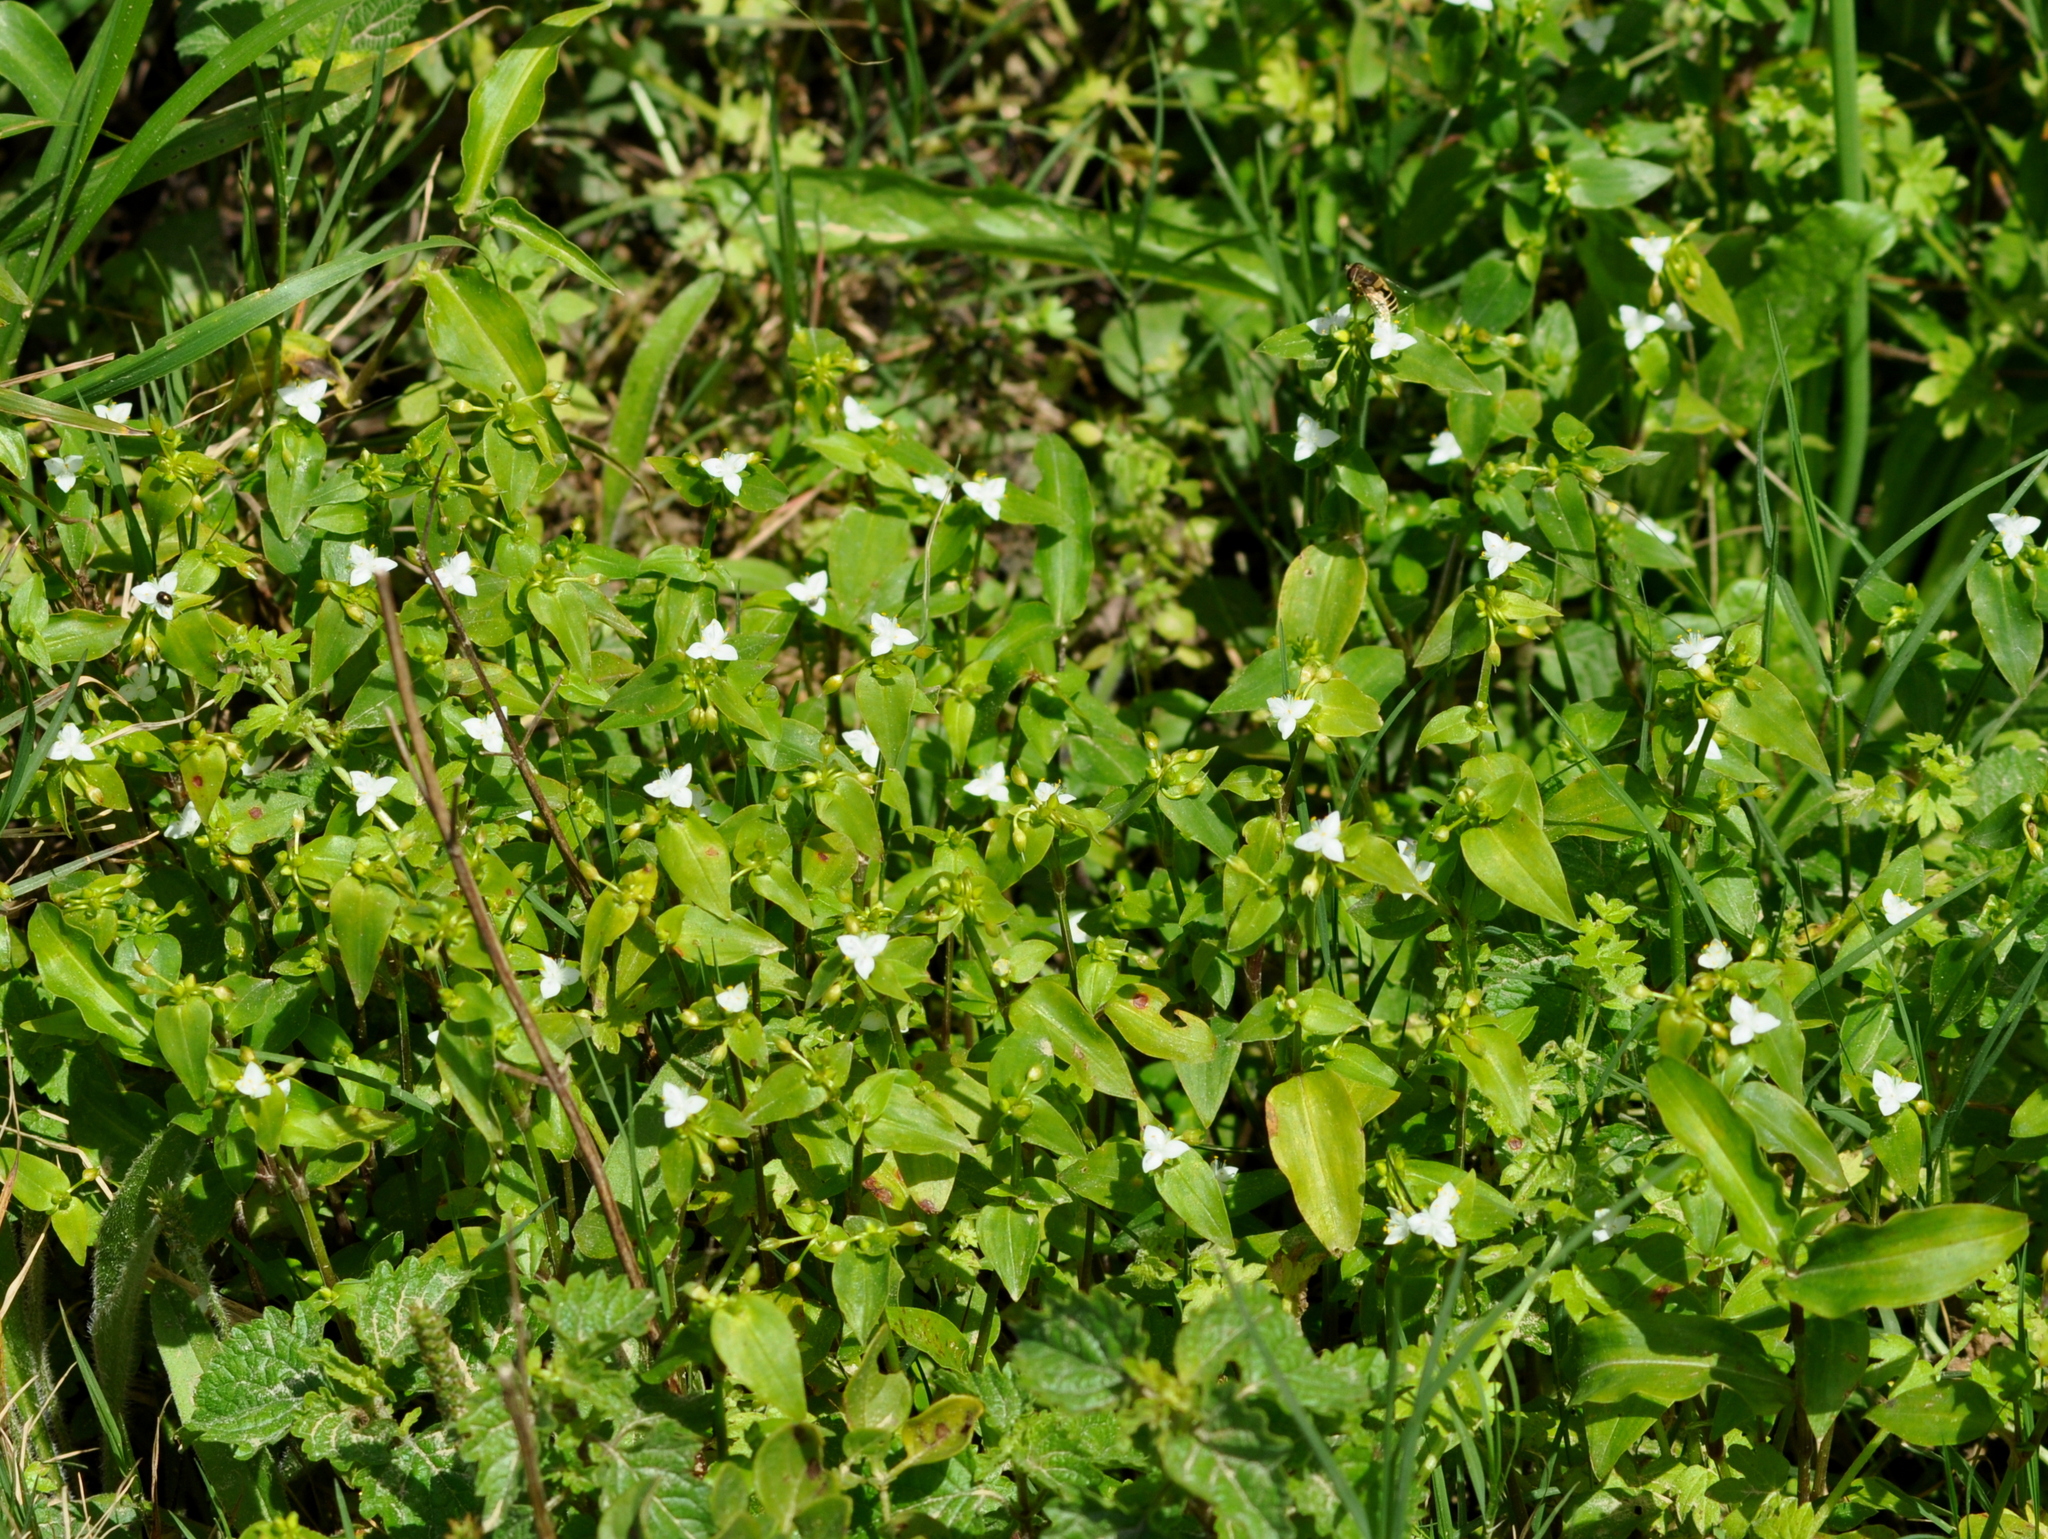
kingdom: Plantae
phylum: Tracheophyta
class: Liliopsida
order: Commelinales
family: Commelinaceae
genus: Tradescantia
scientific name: Tradescantia fluminensis
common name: Wandering-jew
